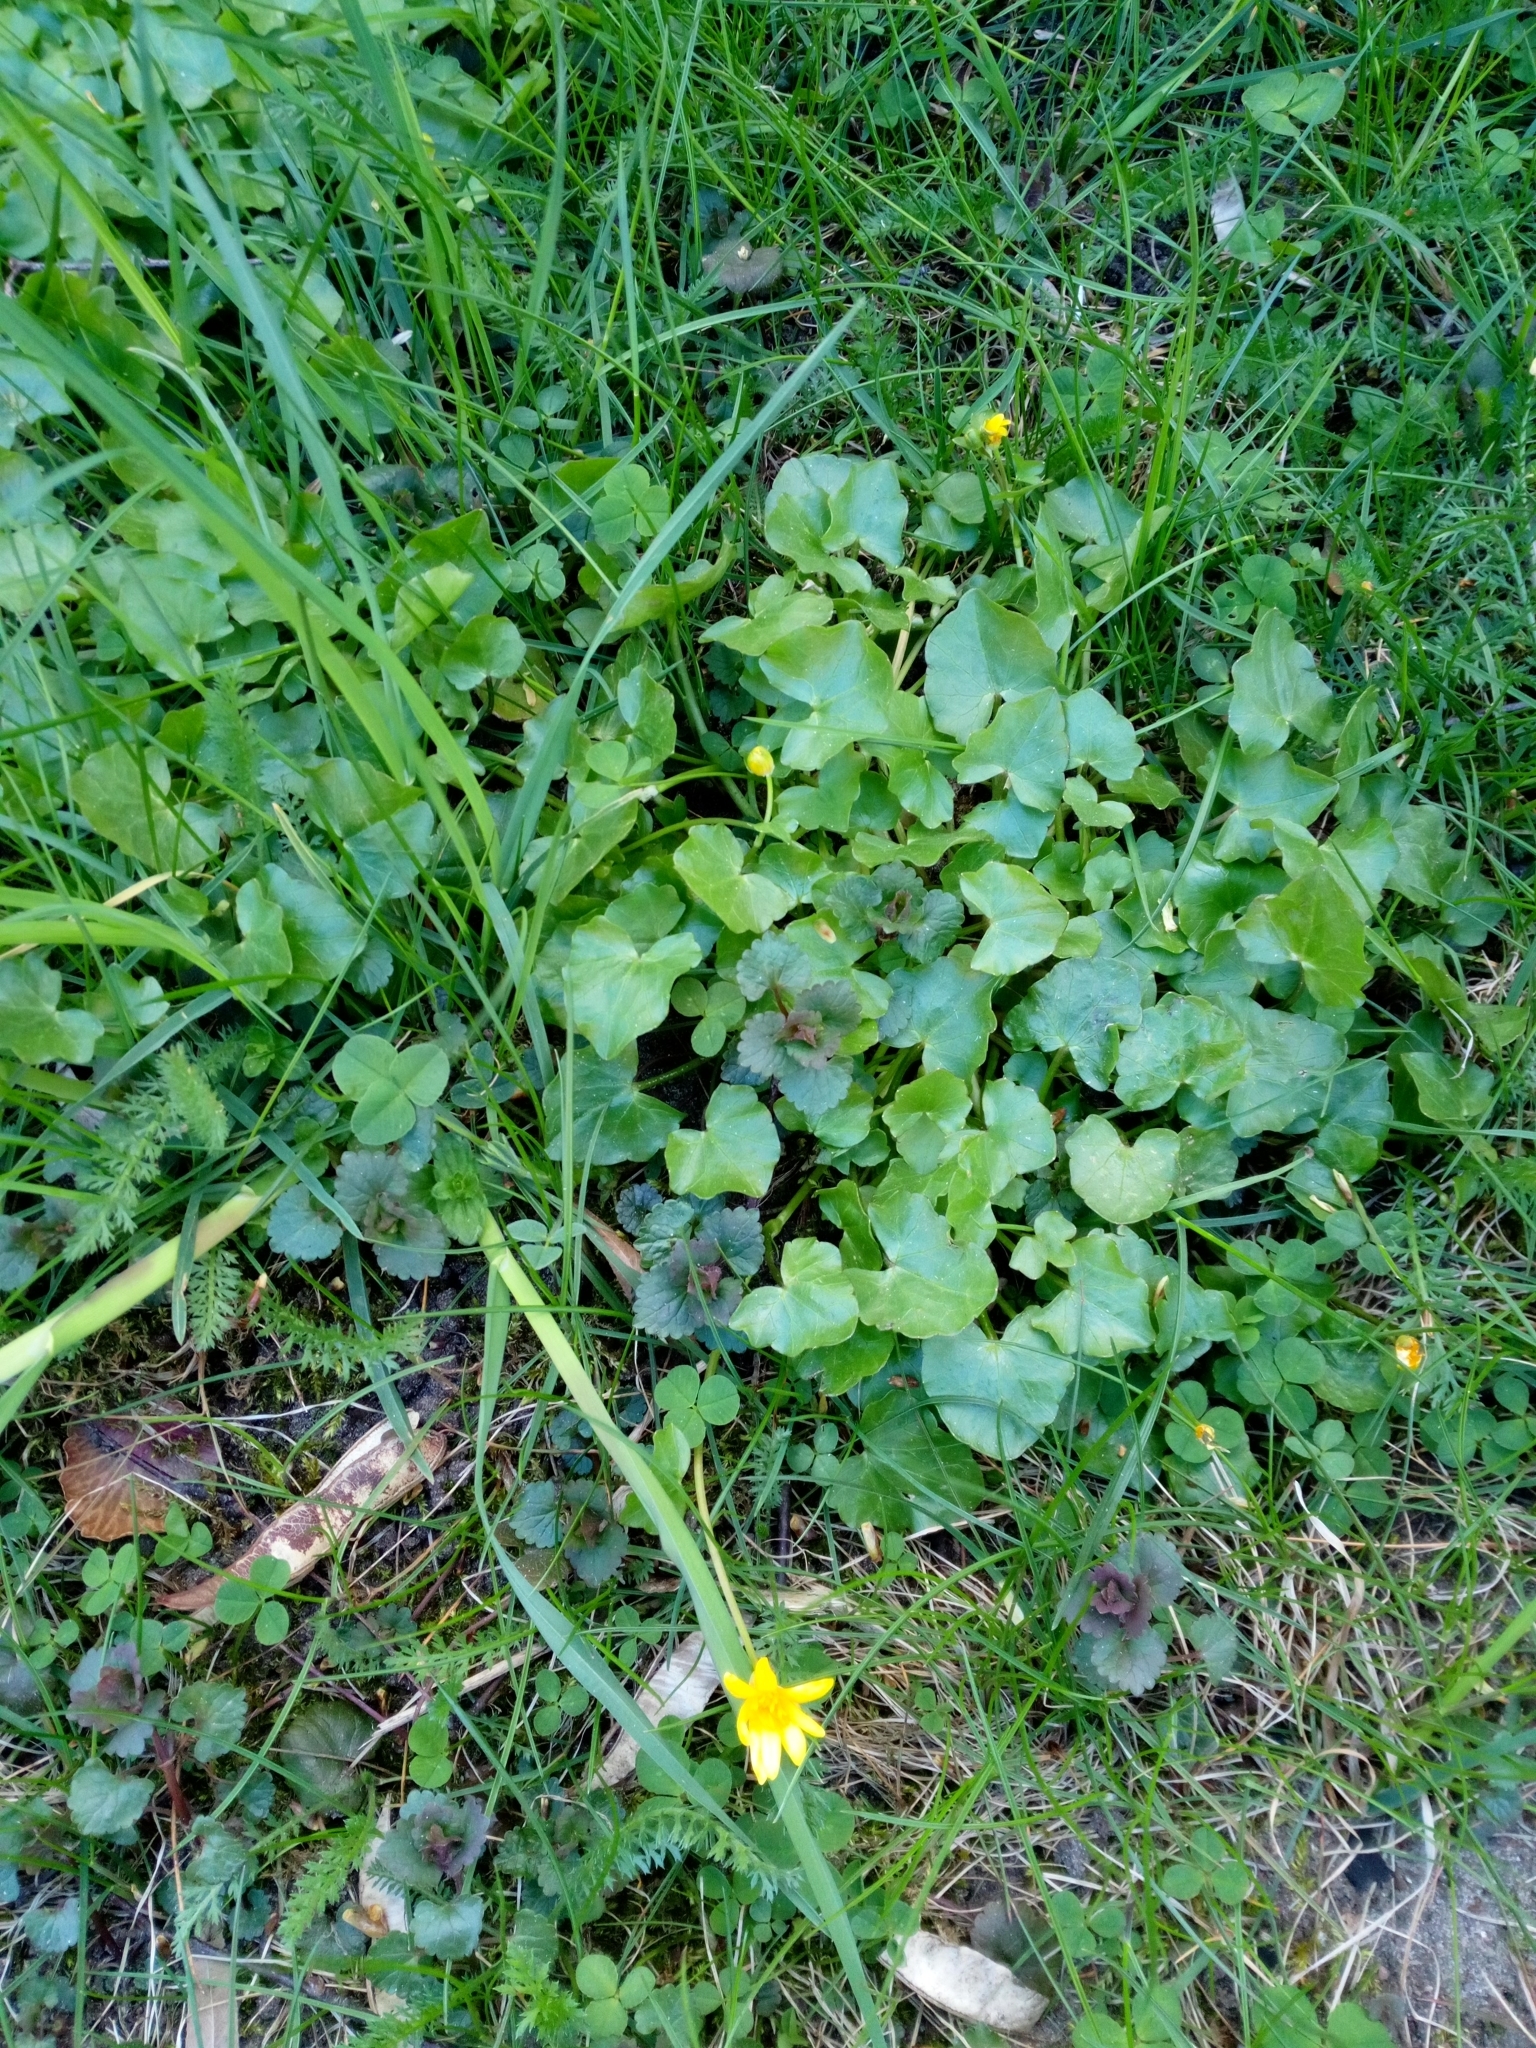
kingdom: Plantae
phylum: Tracheophyta
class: Magnoliopsida
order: Ranunculales
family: Ranunculaceae
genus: Ficaria
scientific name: Ficaria verna
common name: Lesser celandine
